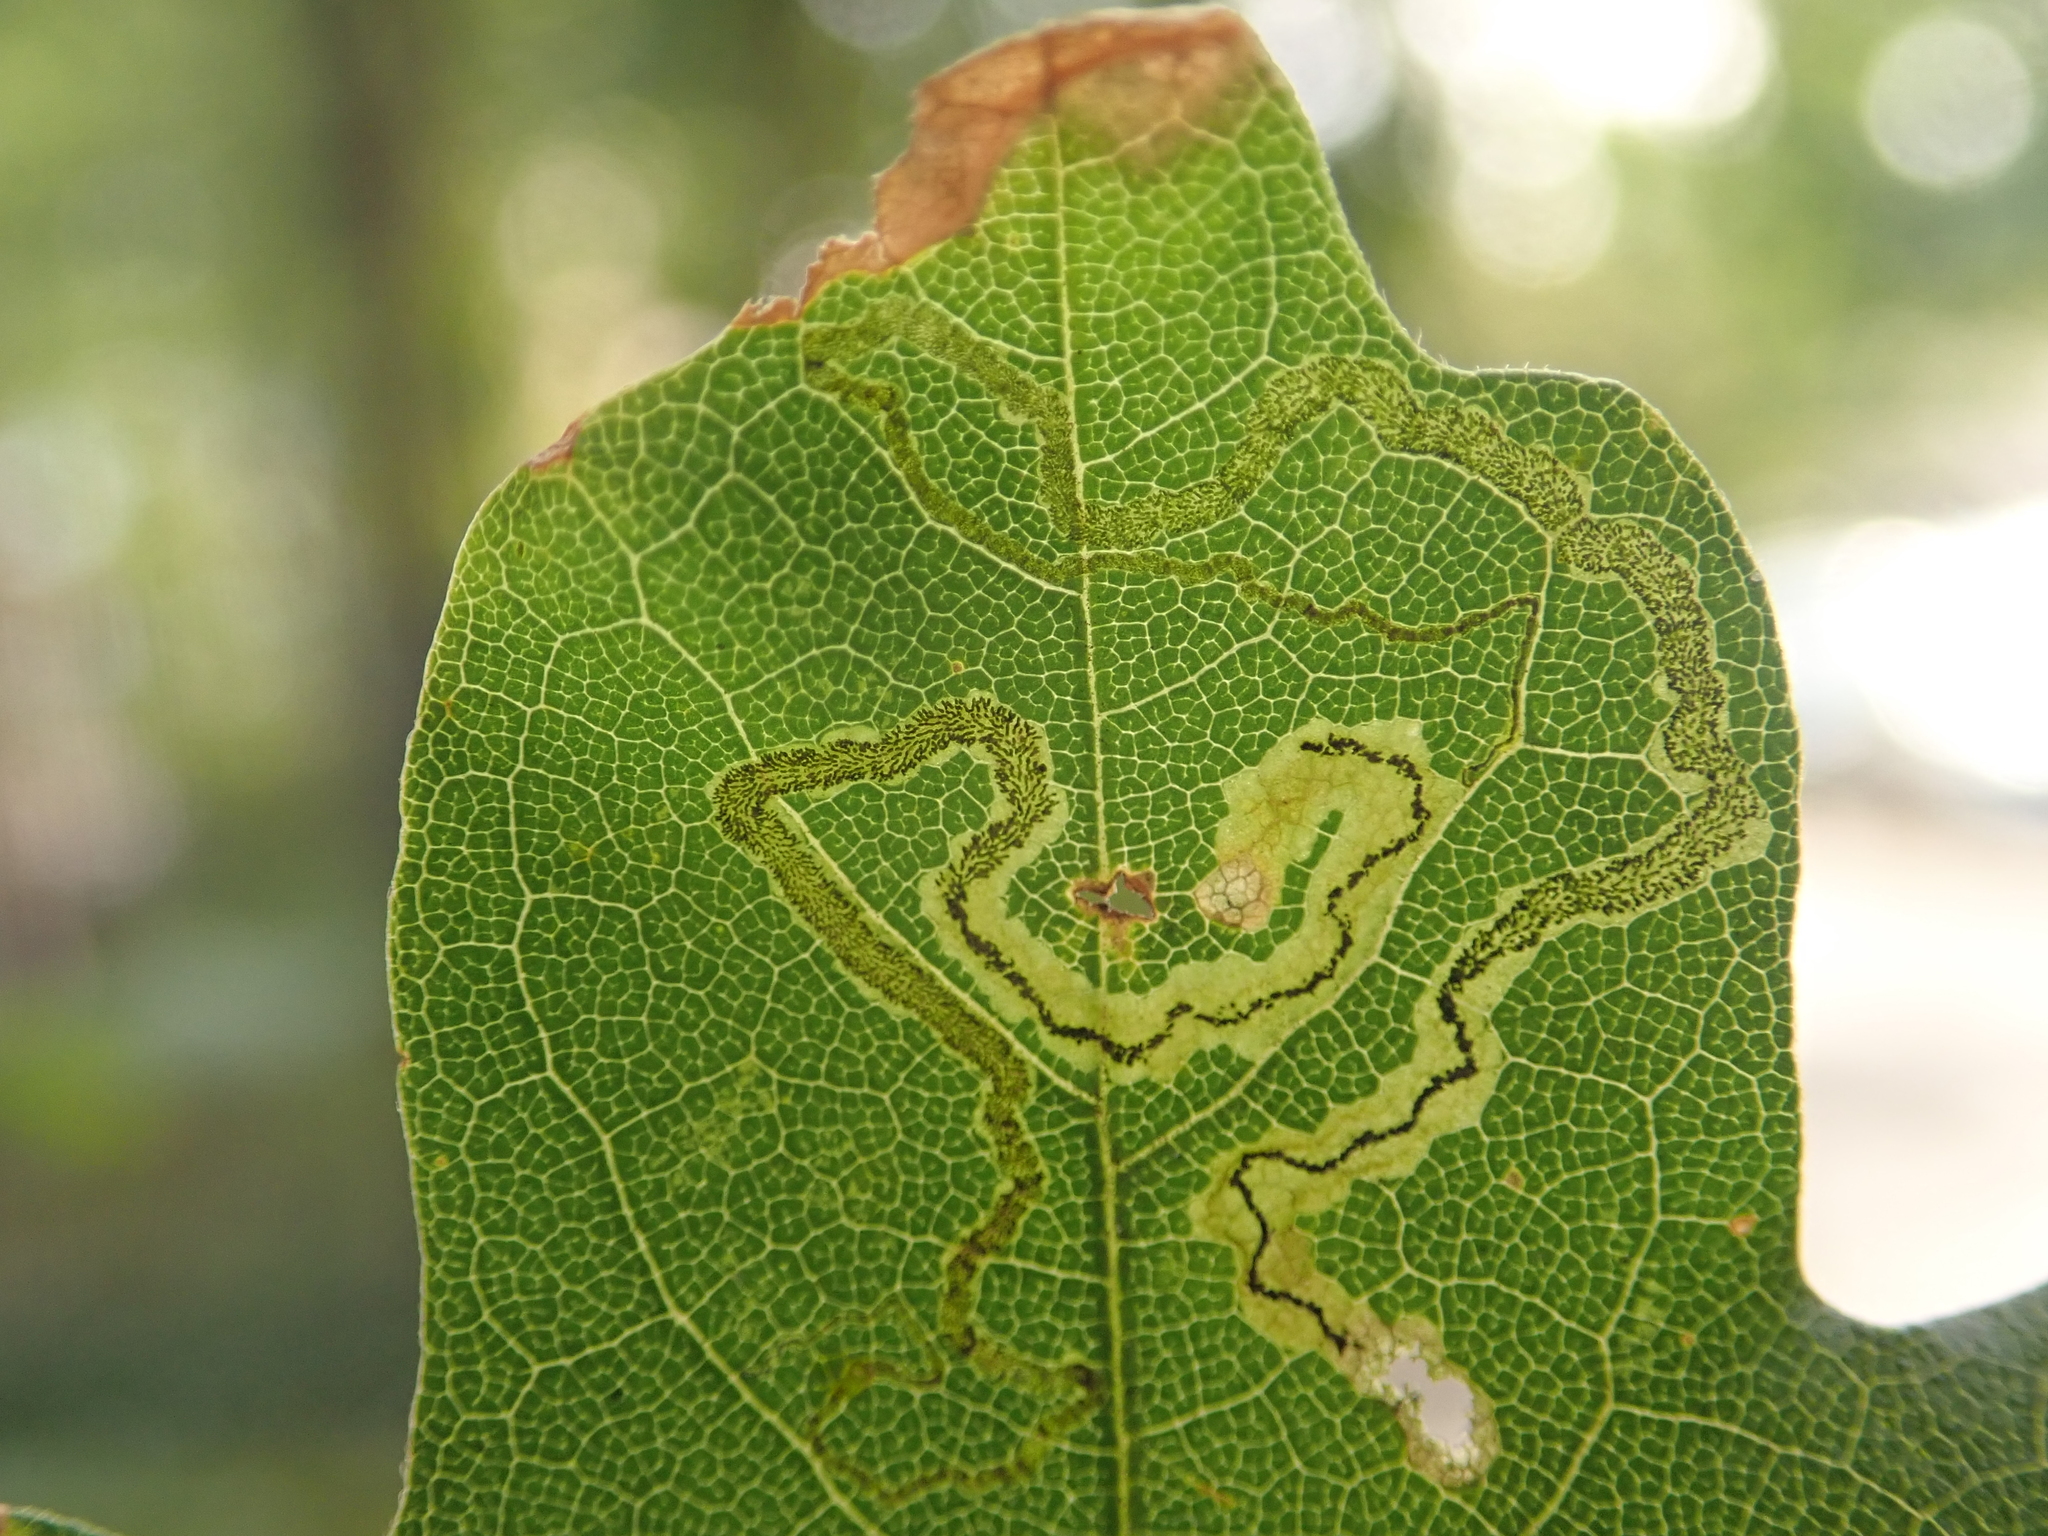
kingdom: Animalia
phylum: Arthropoda
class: Insecta
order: Lepidoptera
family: Nepticulidae
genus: Stigmella
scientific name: Stigmella aceris
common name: Scarce maple pigmy
